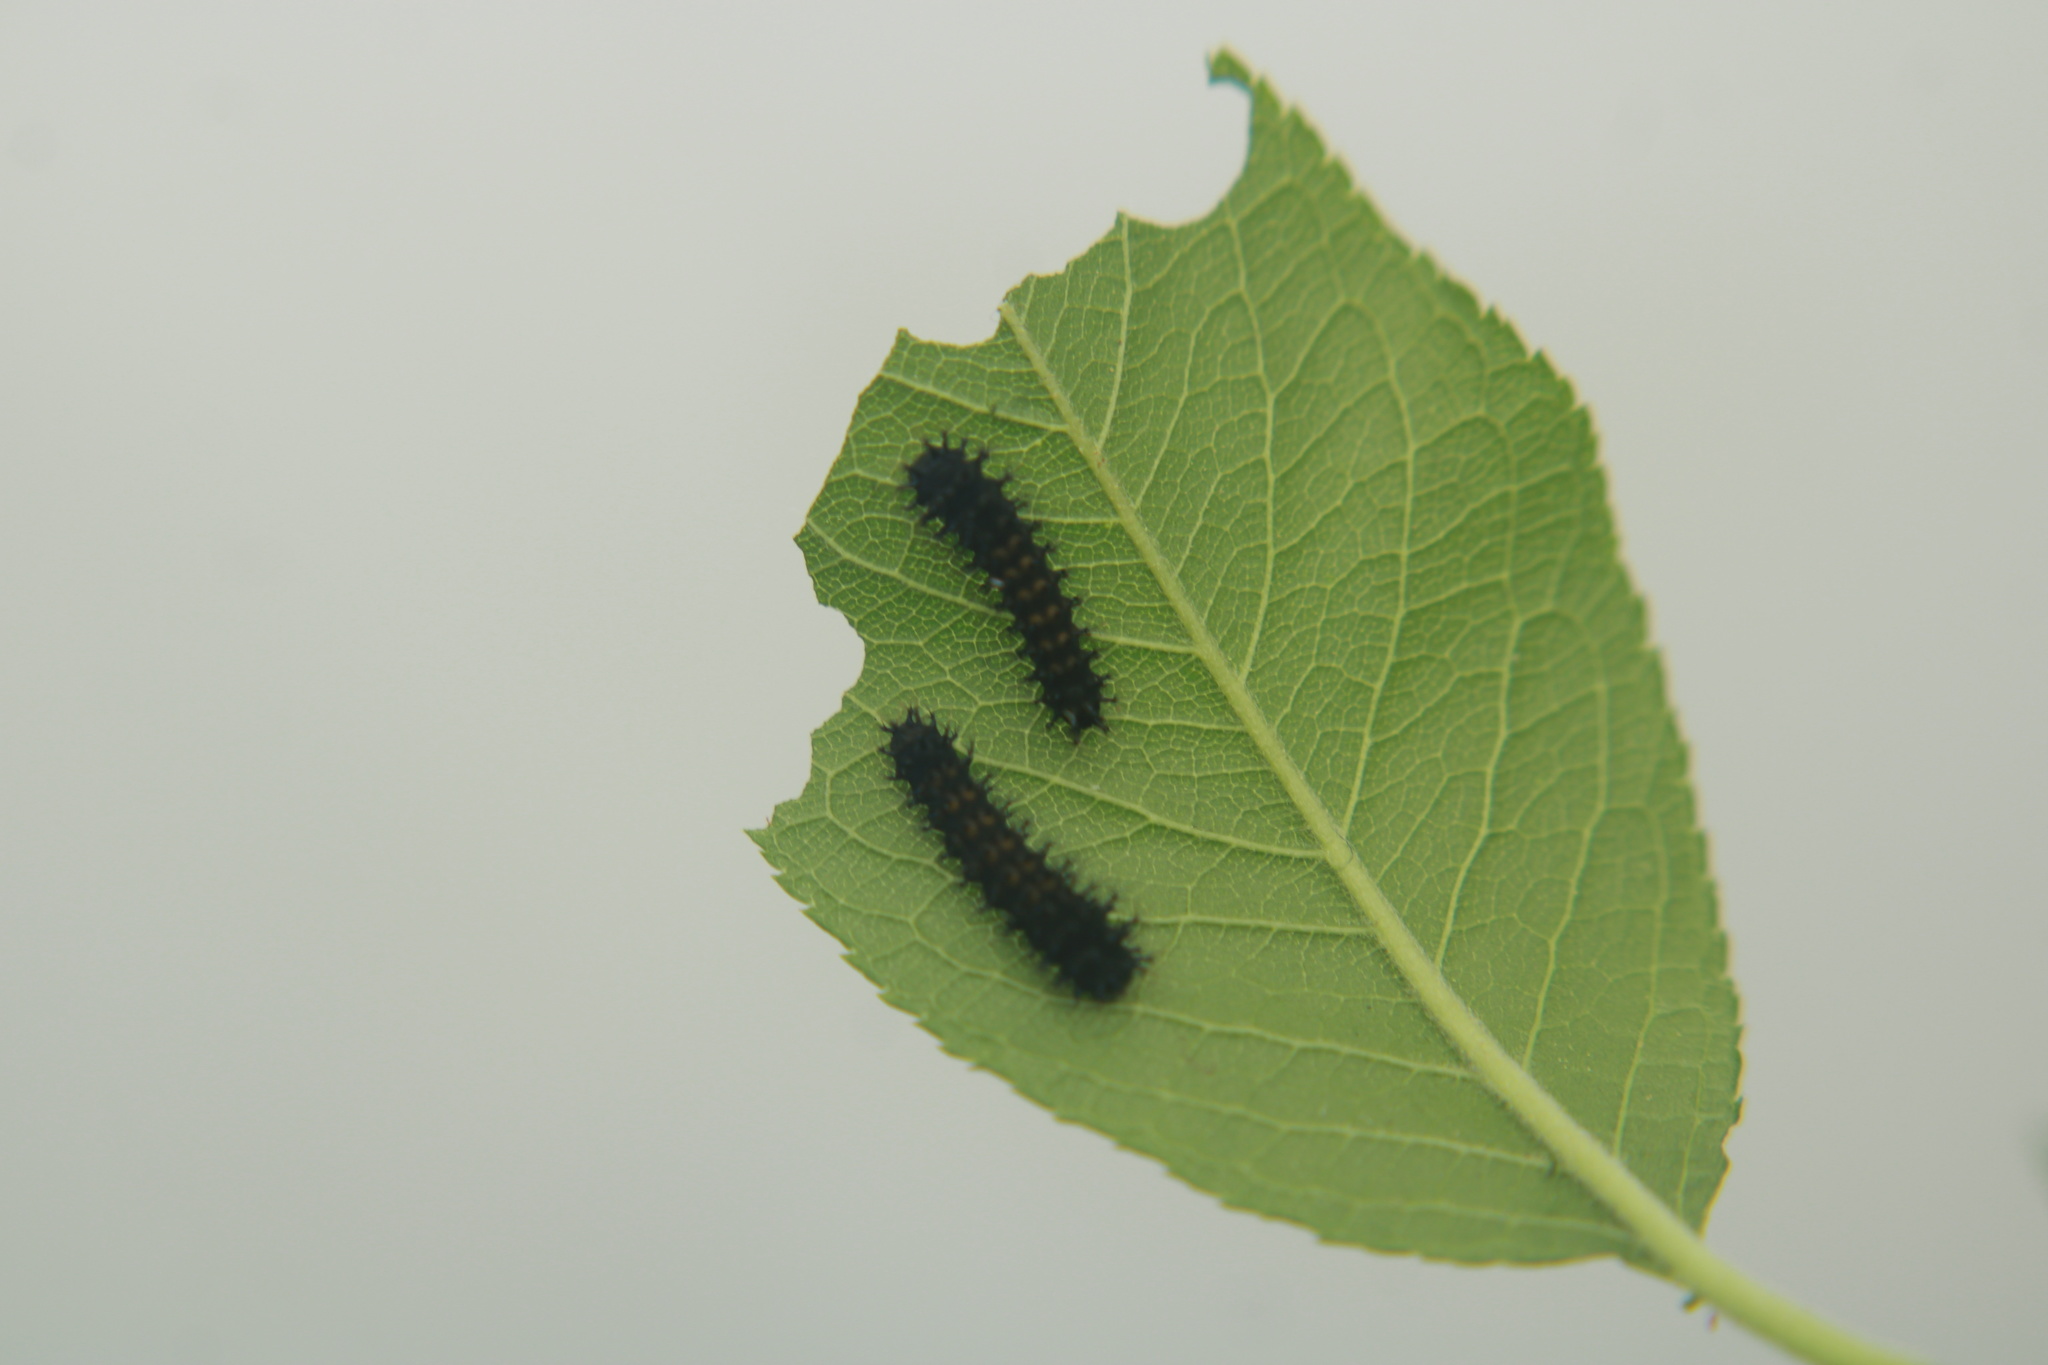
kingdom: Animalia
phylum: Arthropoda
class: Insecta
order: Lepidoptera
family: Saturniidae
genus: Hyalophora
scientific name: Hyalophora cecropia
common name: Cecropia silkmoth
